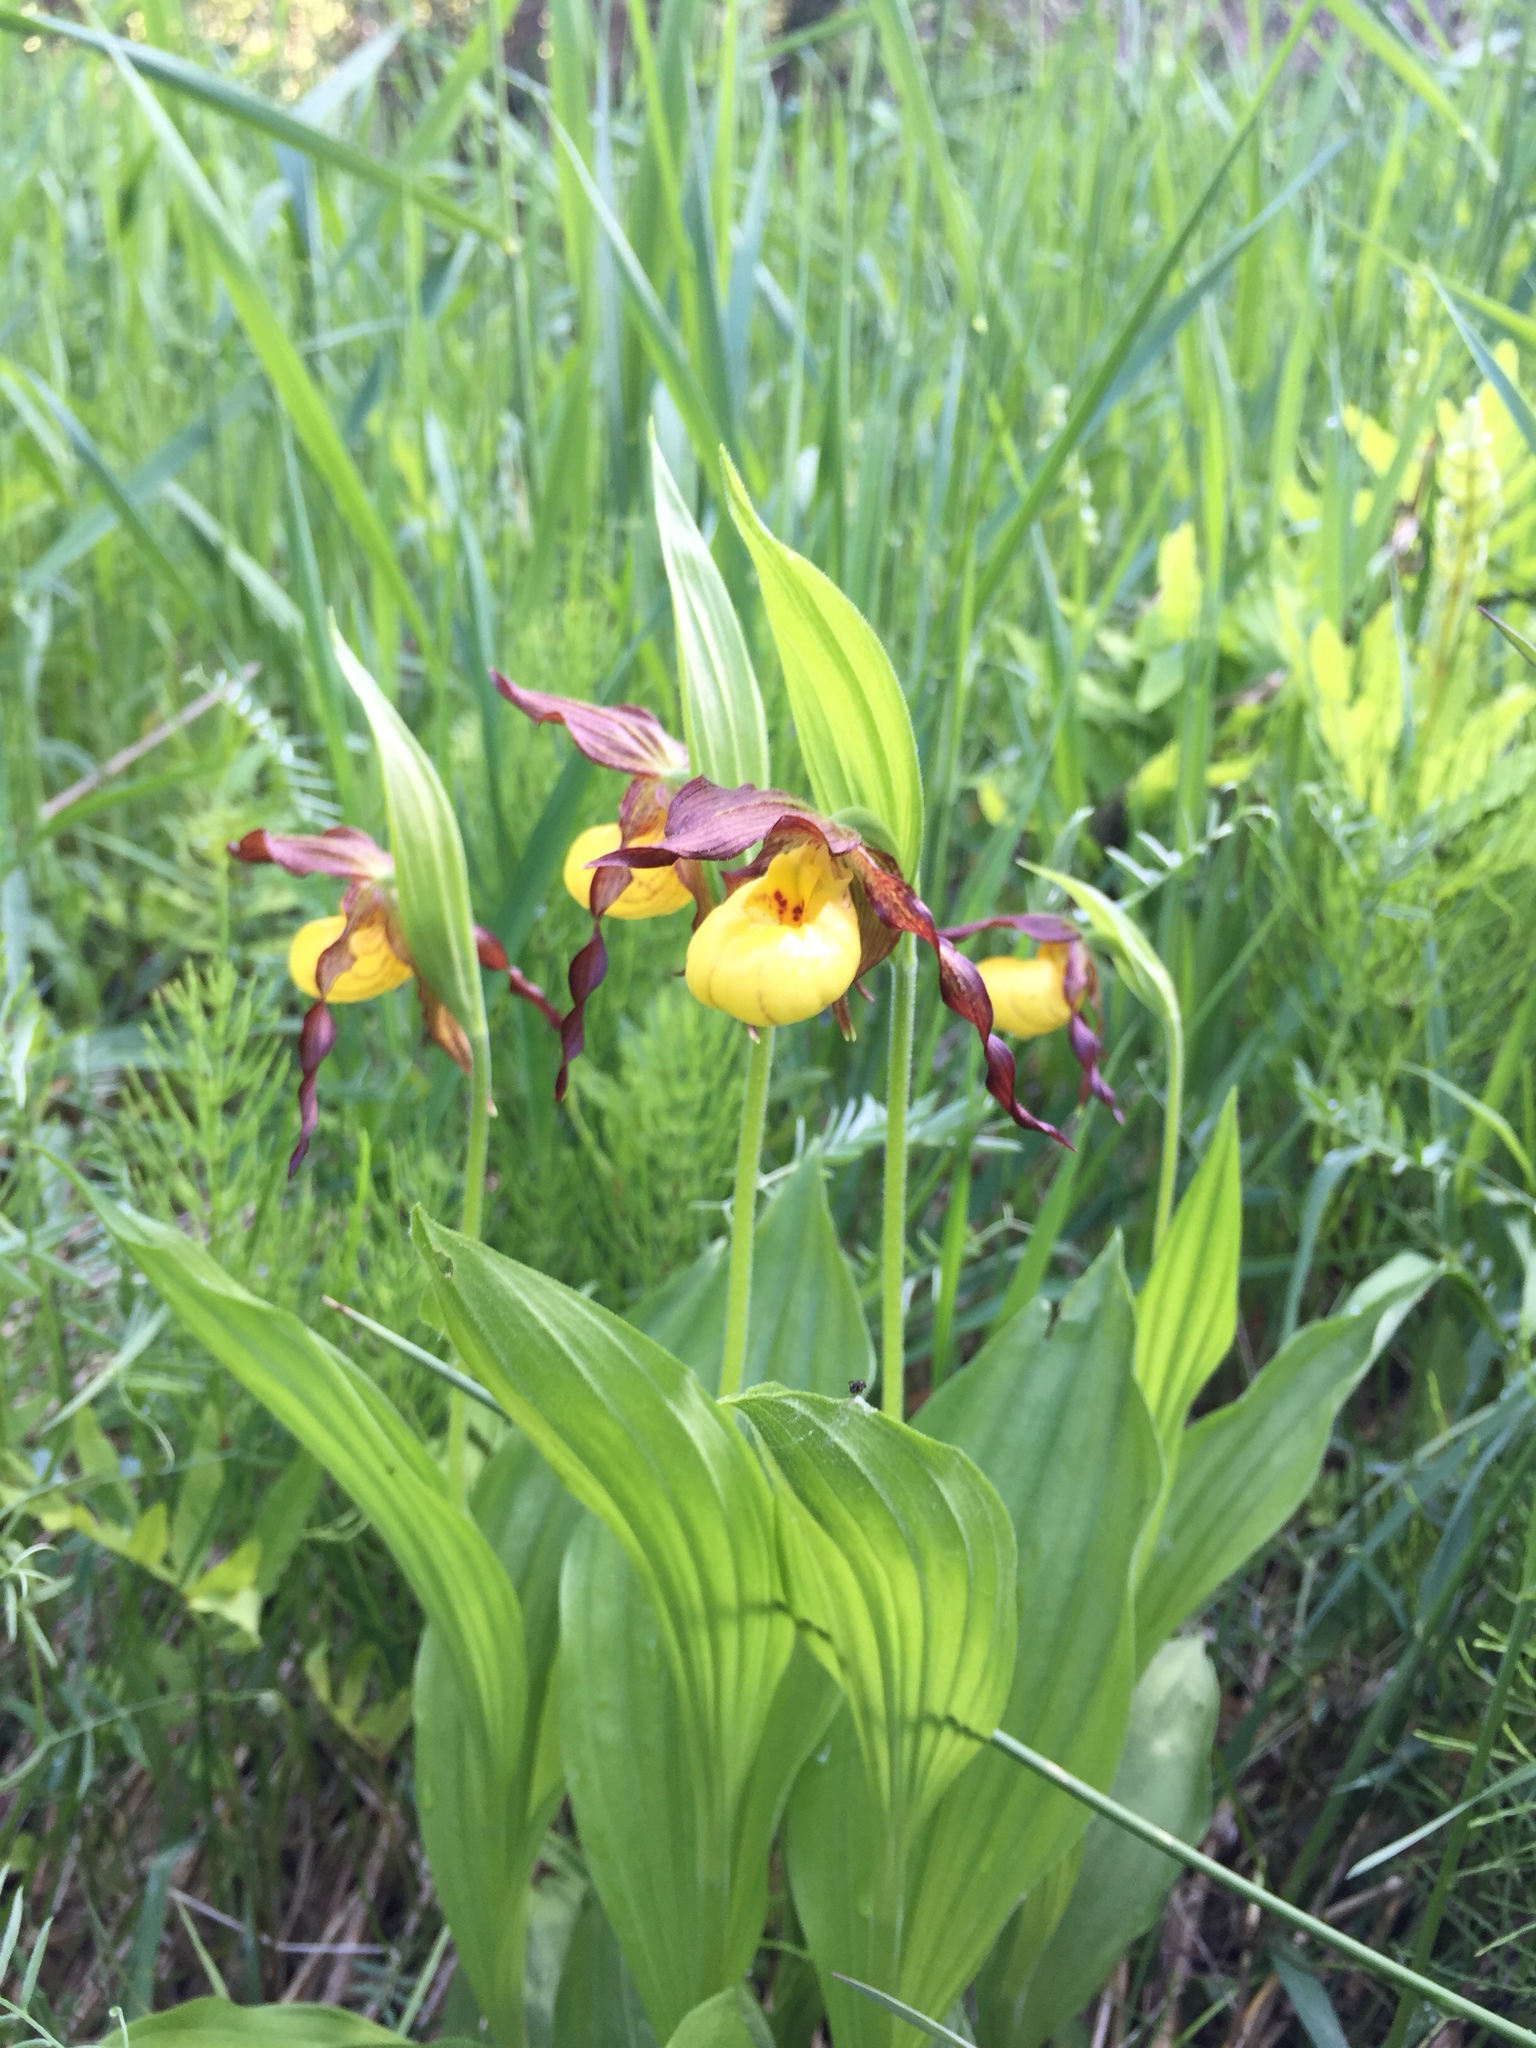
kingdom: Plantae
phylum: Tracheophyta
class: Liliopsida
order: Asparagales
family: Orchidaceae
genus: Cypripedium
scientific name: Cypripedium parviflorum
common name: American yellow lady's-slipper
